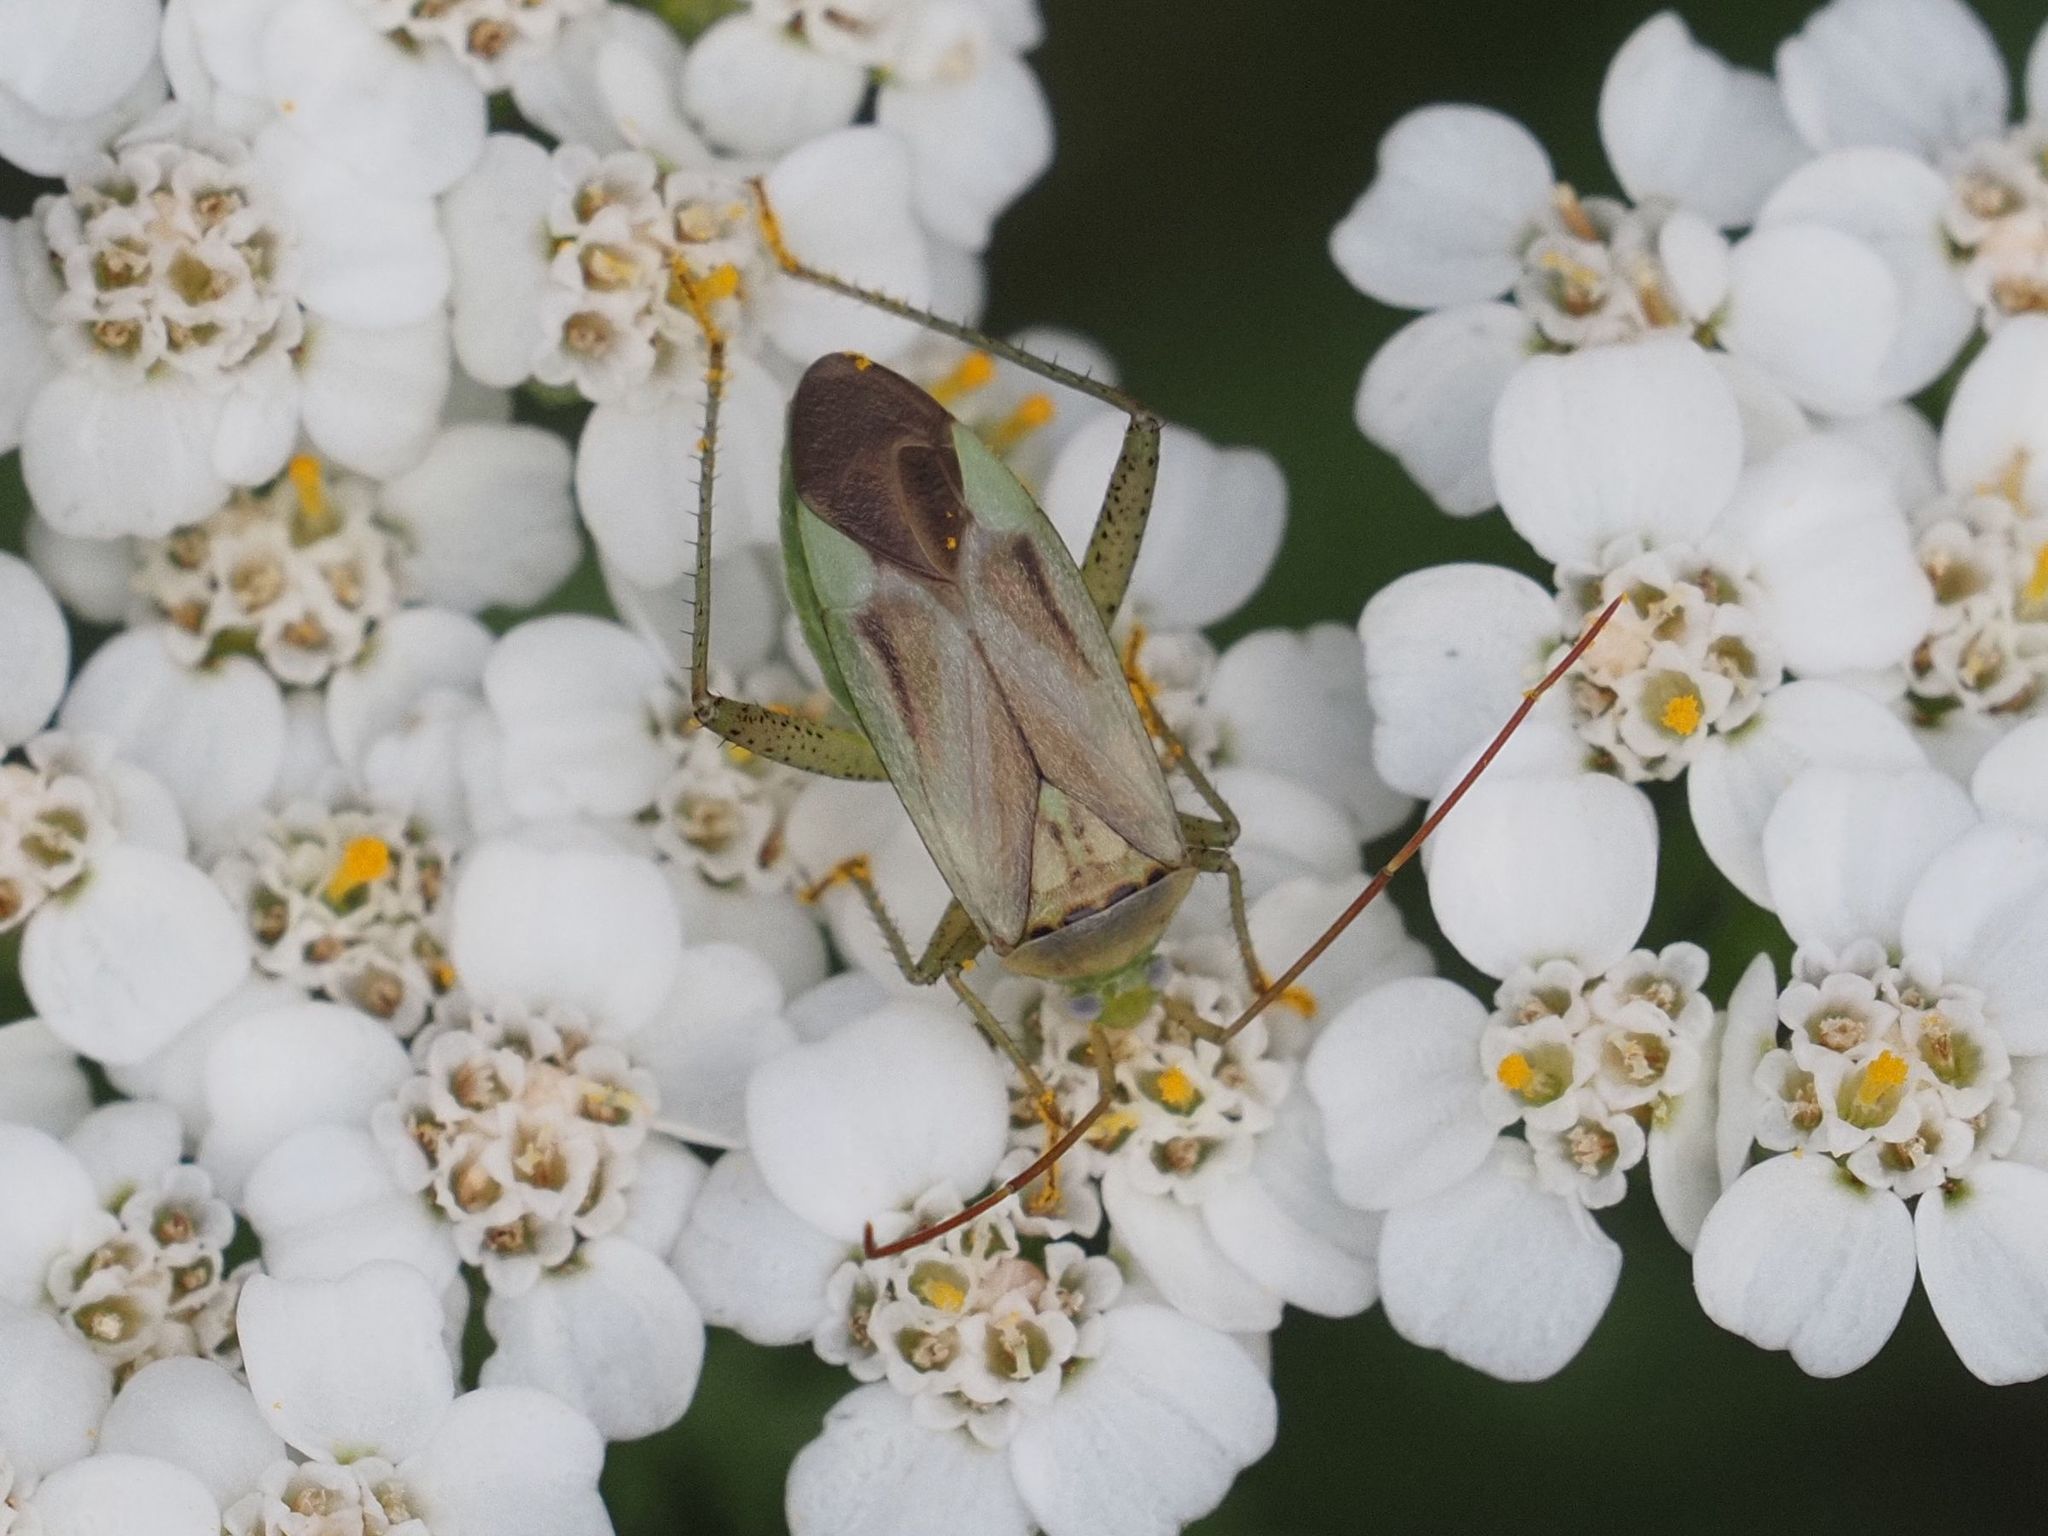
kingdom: Animalia
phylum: Arthropoda
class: Insecta
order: Hemiptera
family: Miridae
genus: Adelphocoris
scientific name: Adelphocoris lineolatus
